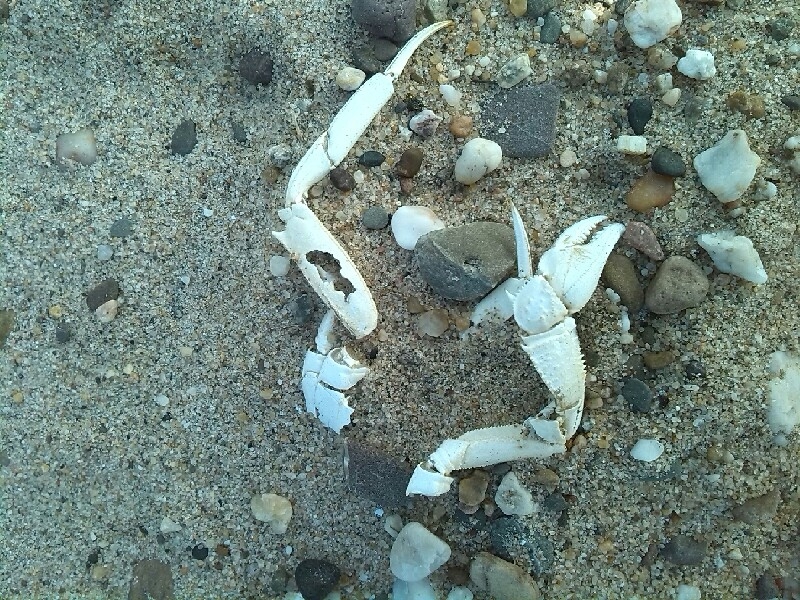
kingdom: Animalia
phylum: Arthropoda
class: Malacostraca
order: Decapoda
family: Varunidae
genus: Eriocheir
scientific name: Eriocheir sinensis
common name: Chinese mitten crab
